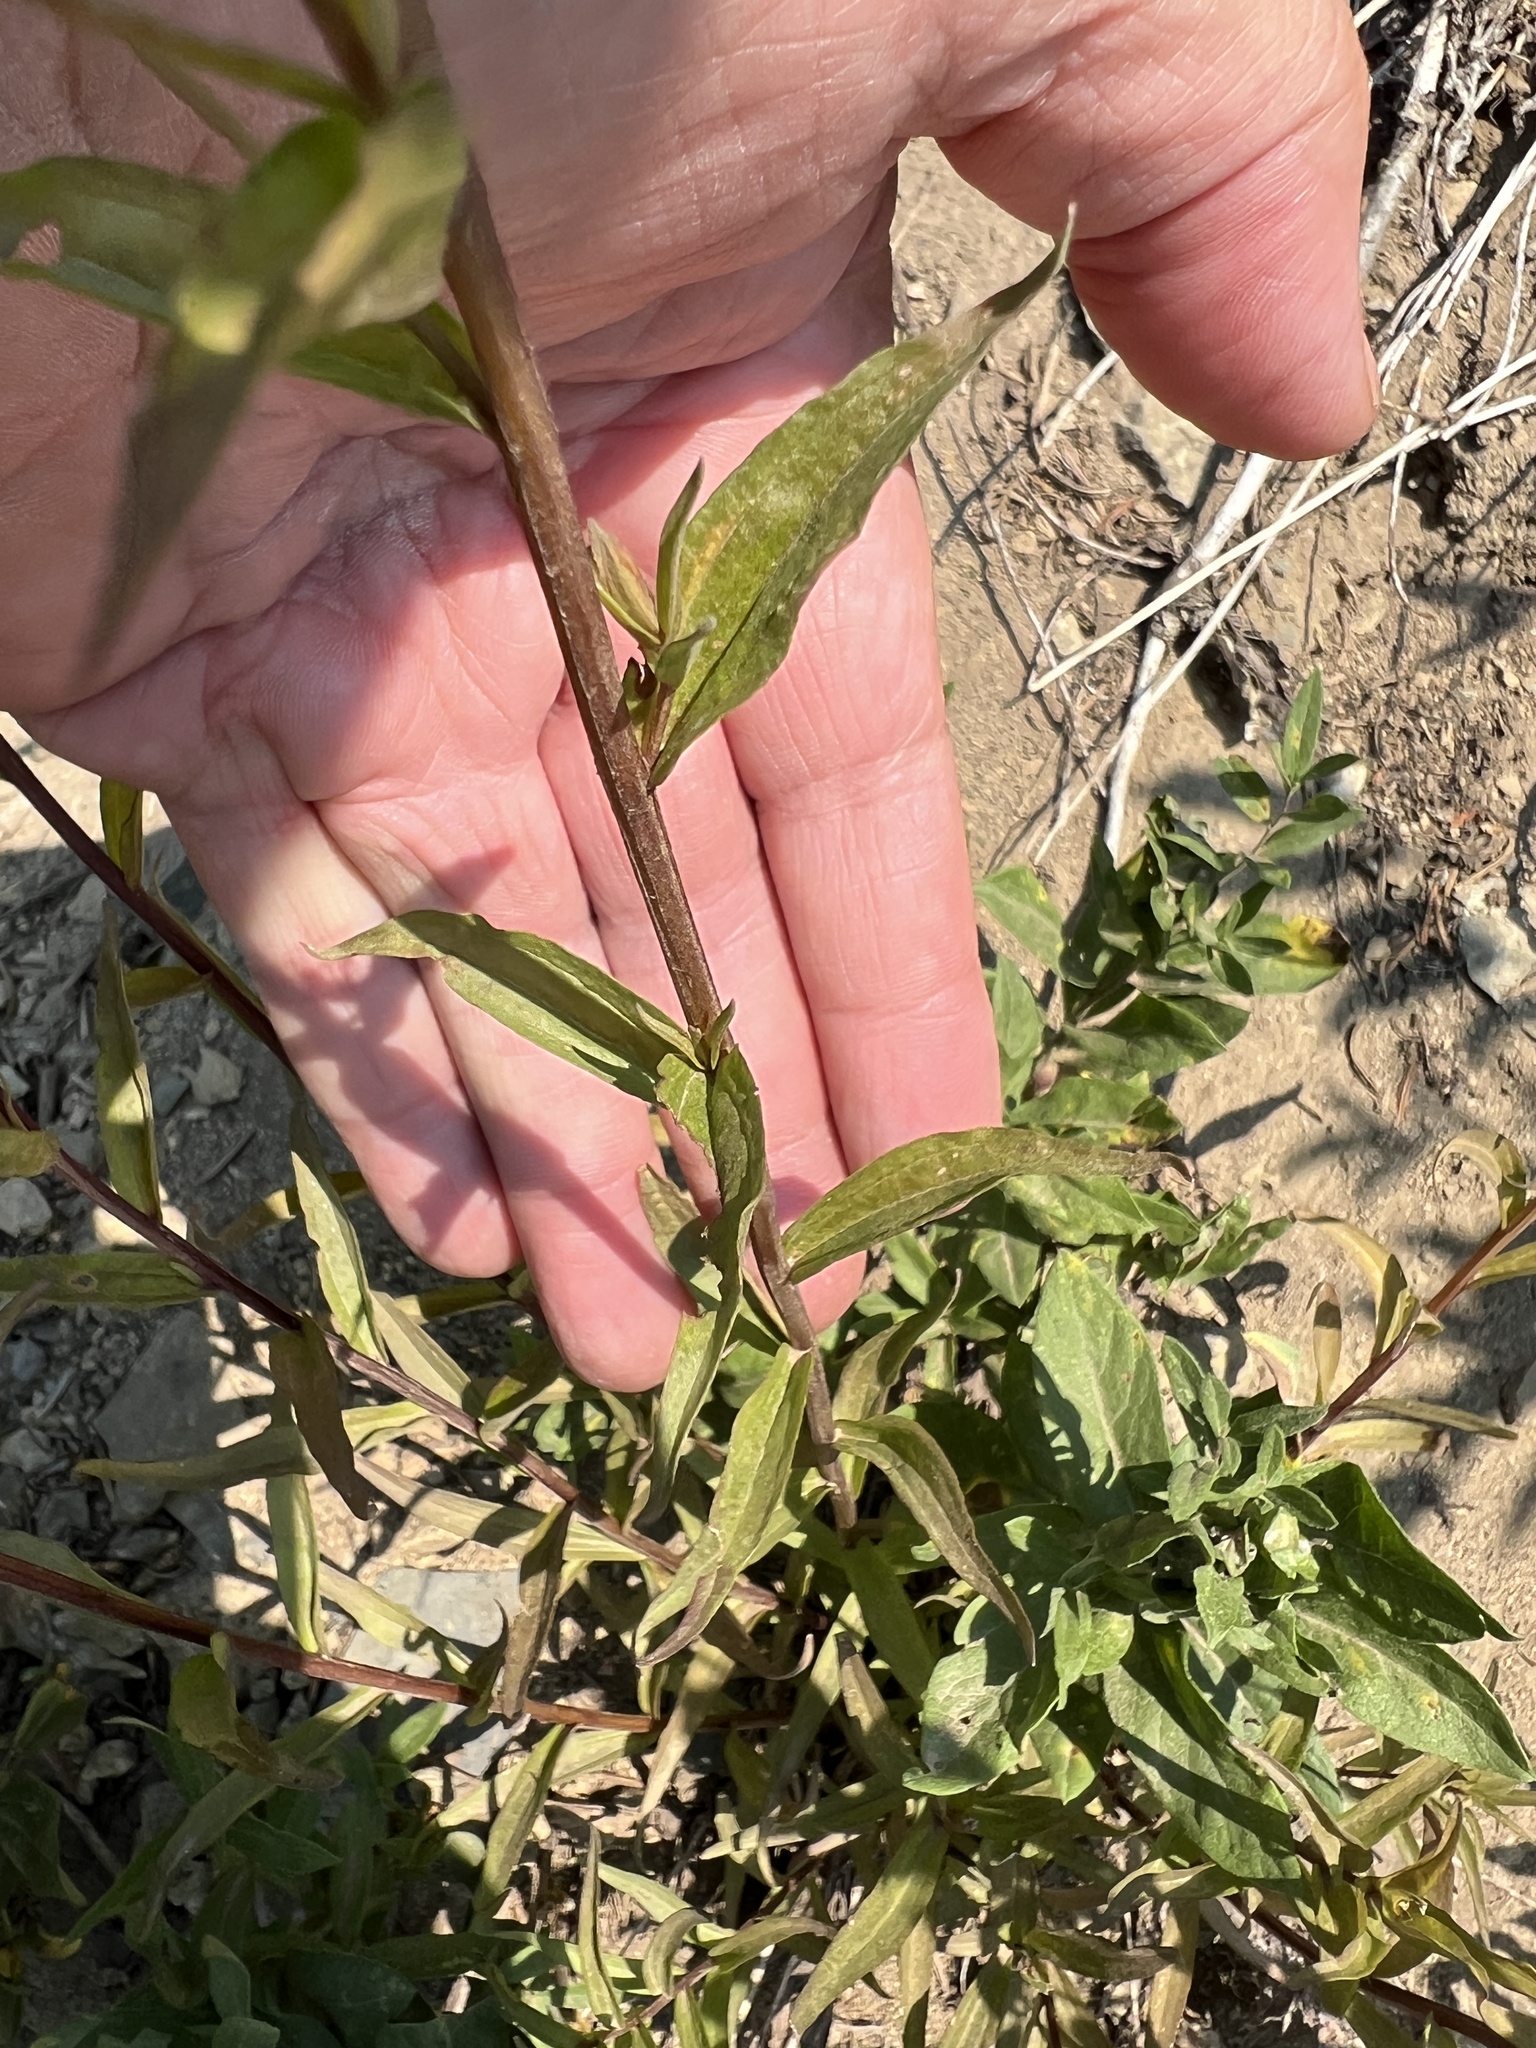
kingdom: Plantae
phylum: Tracheophyta
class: Magnoliopsida
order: Lamiales
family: Orobanchaceae
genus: Castilleja
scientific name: Castilleja miniata
